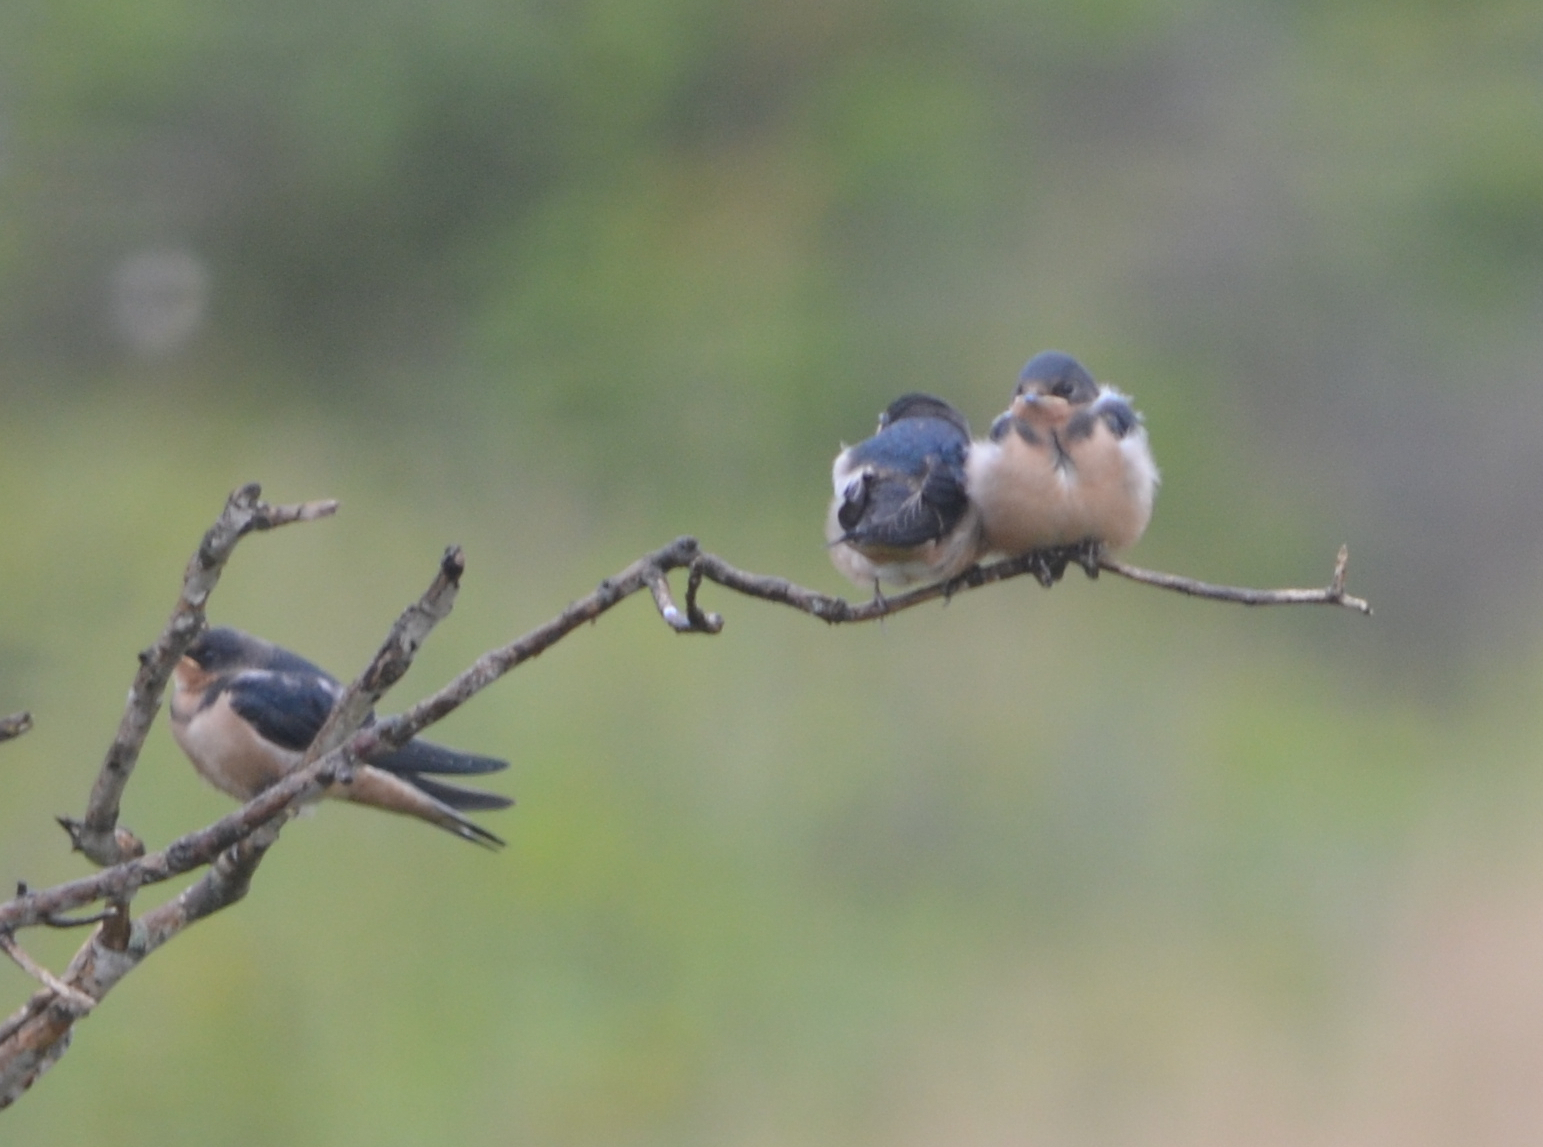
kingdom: Animalia
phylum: Chordata
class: Aves
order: Passeriformes
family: Hirundinidae
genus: Hirundo
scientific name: Hirundo rustica
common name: Barn swallow
